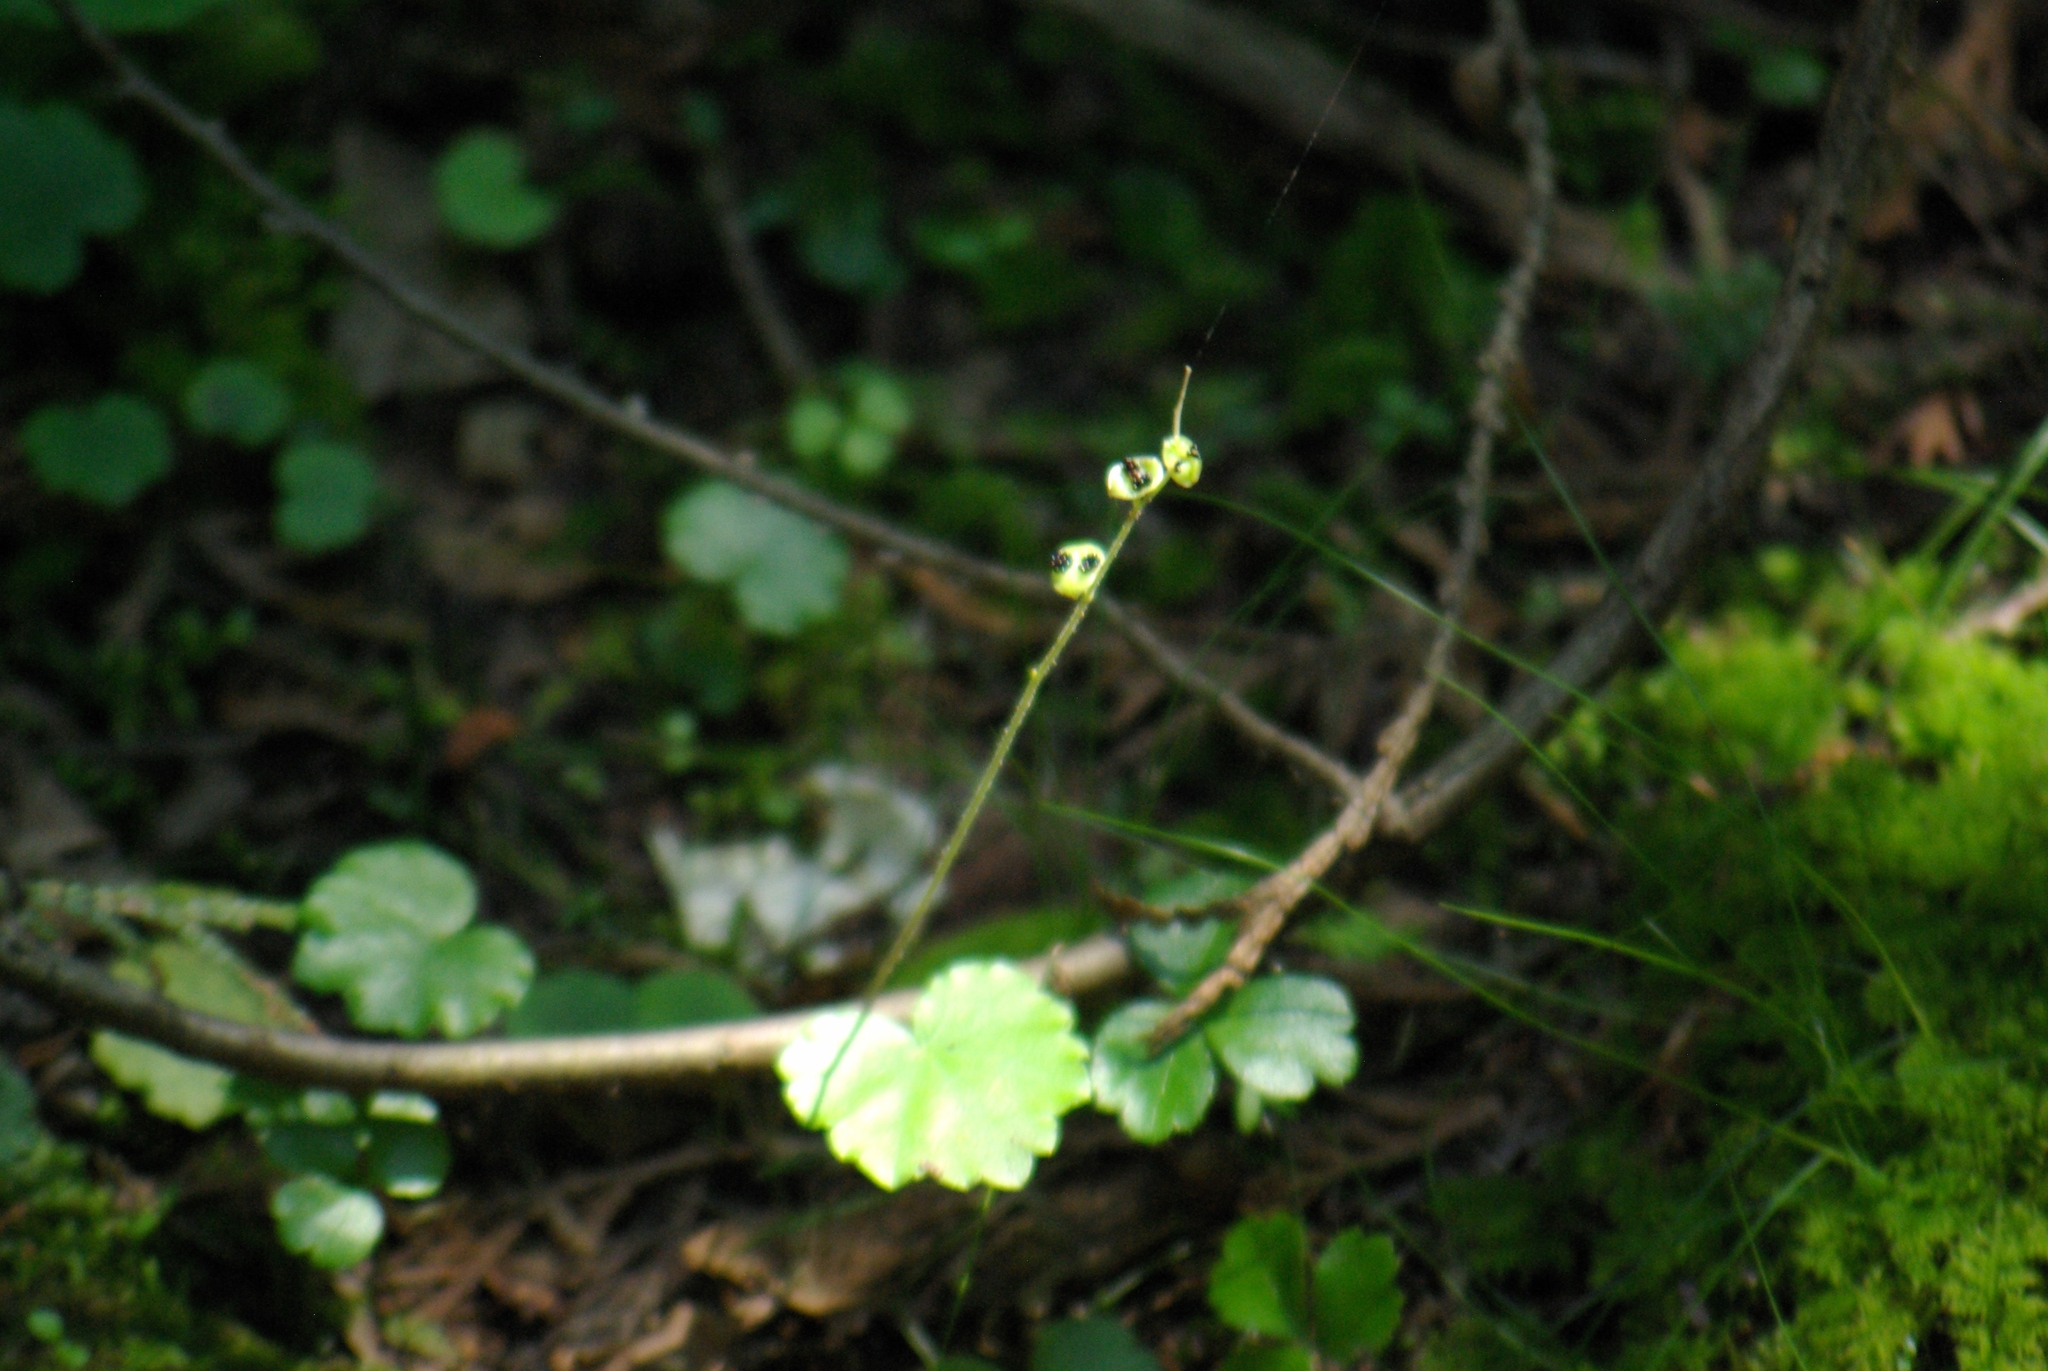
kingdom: Plantae
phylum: Tracheophyta
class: Magnoliopsida
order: Saxifragales
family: Saxifragaceae
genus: Mitella
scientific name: Mitella nuda
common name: Bare-stemmed bishop's-cap
